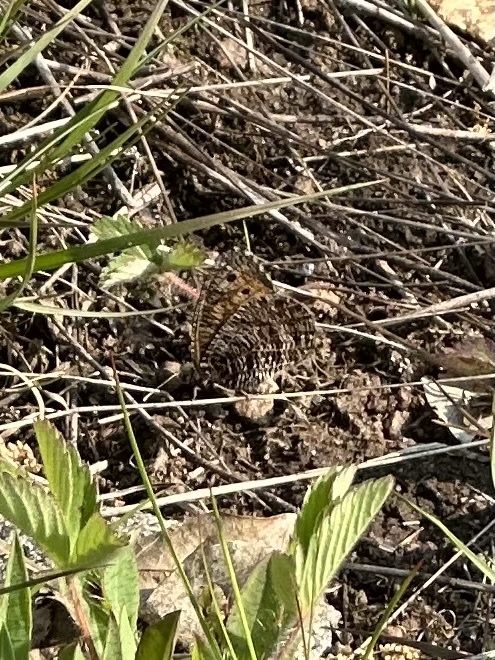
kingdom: Animalia
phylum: Arthropoda
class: Insecta
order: Lepidoptera
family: Nymphalidae
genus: Oeneis
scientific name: Oeneis chryxus
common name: Chryxus arctic
